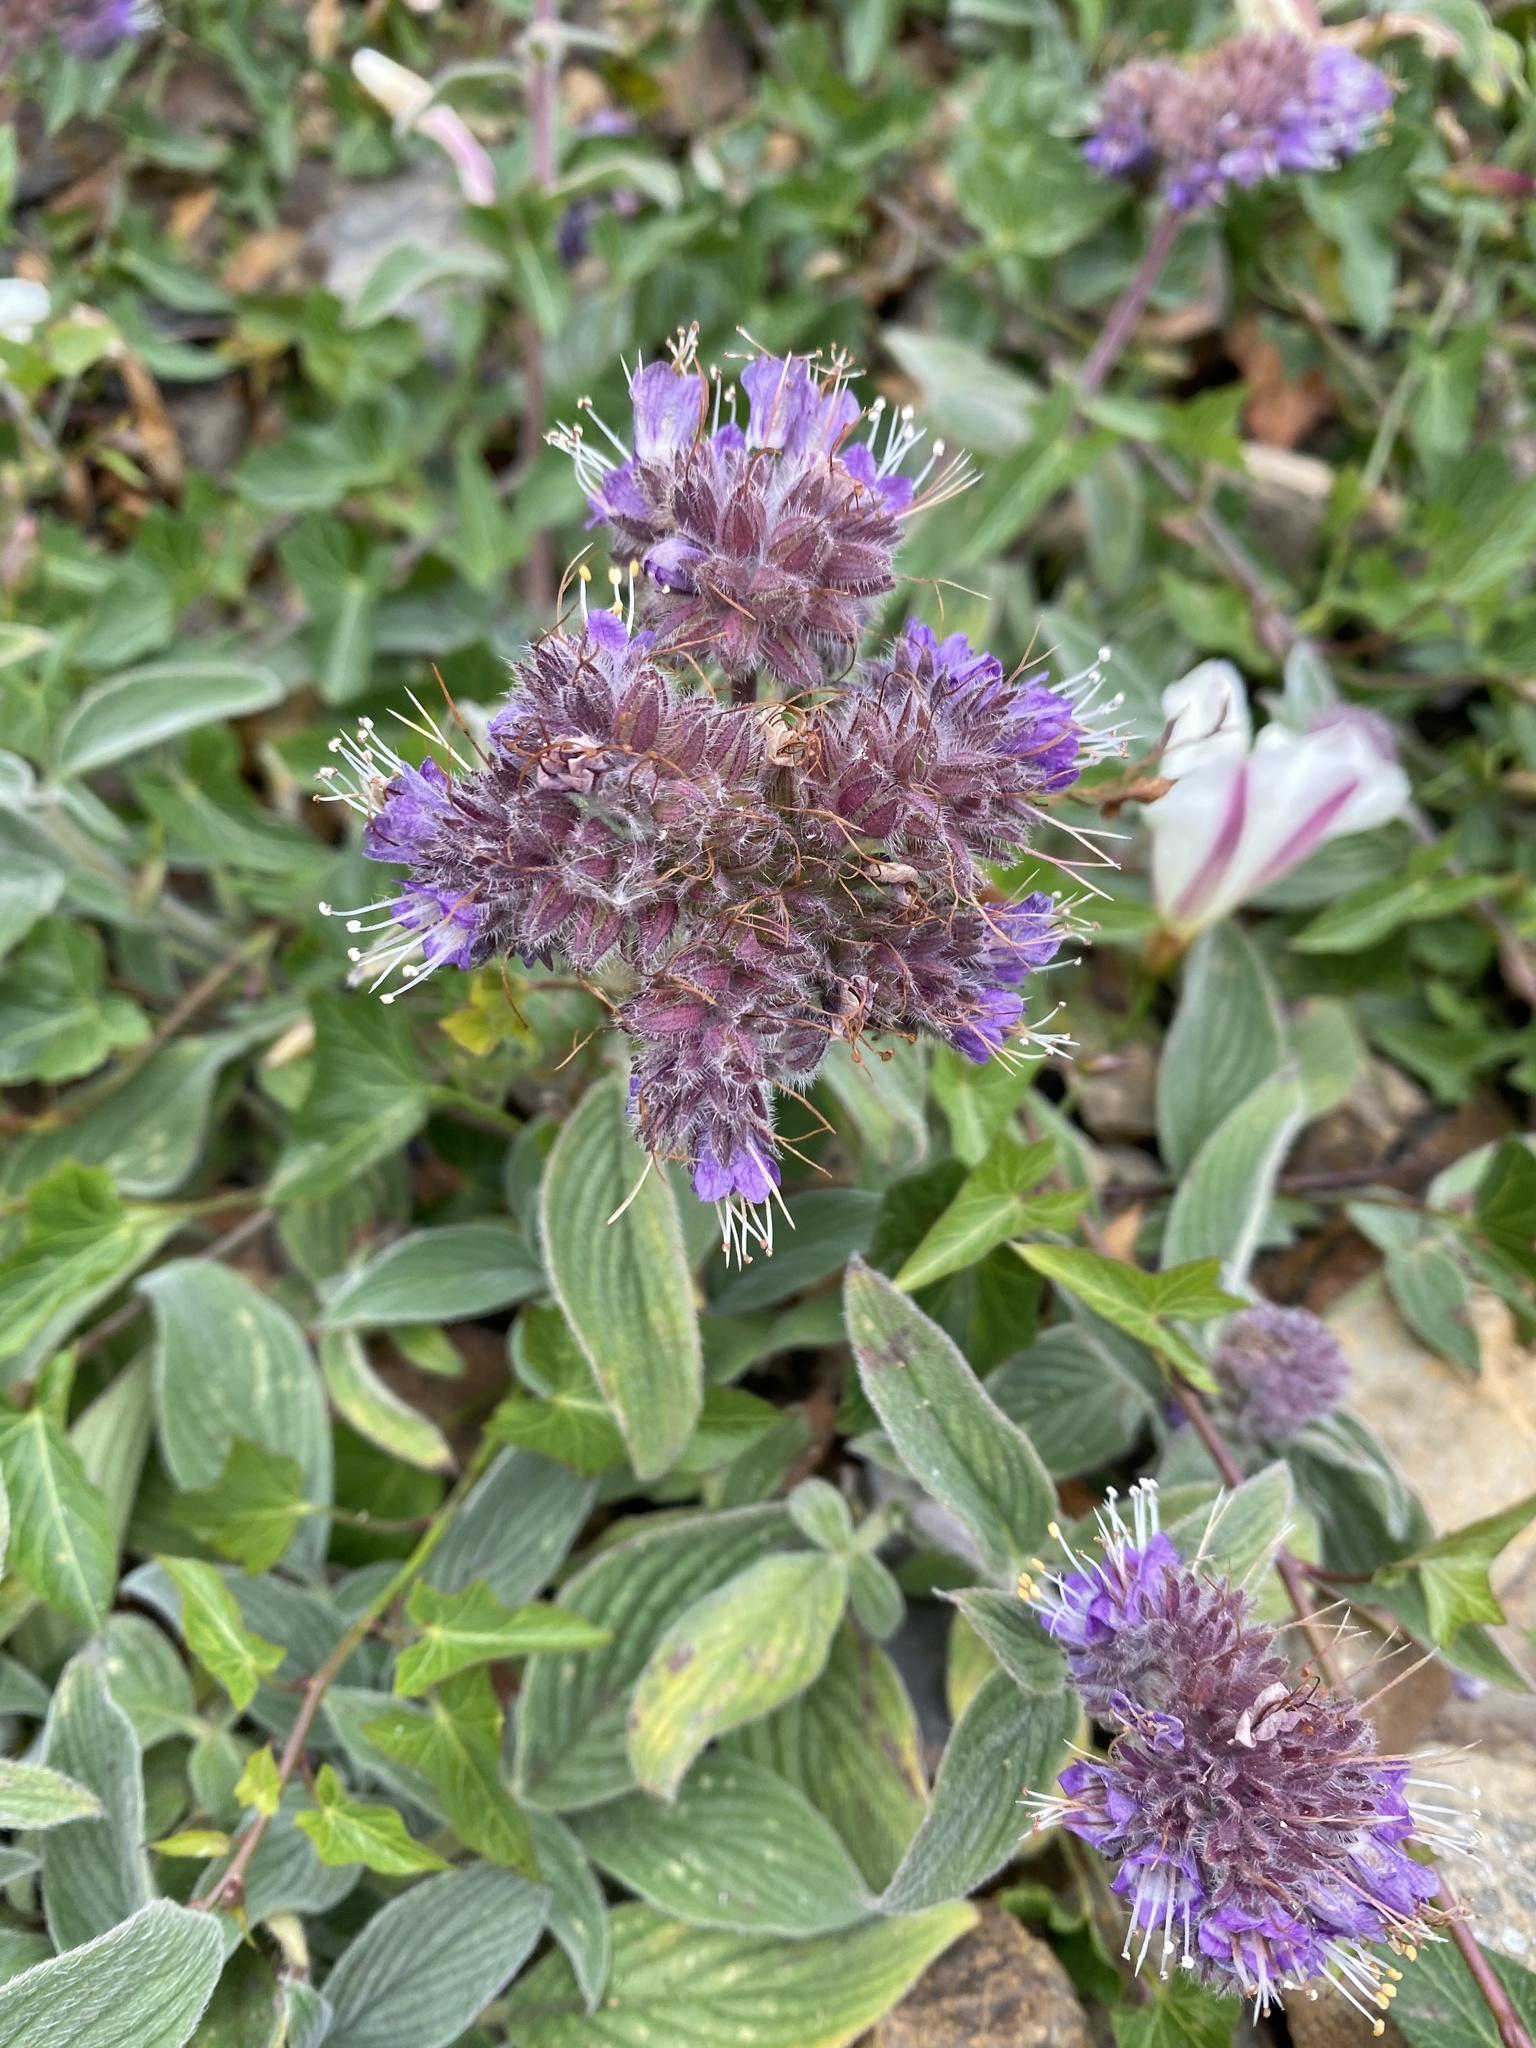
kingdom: Plantae
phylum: Tracheophyta
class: Magnoliopsida
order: Boraginales
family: Hydrophyllaceae
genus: Phacelia
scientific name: Phacelia californica
